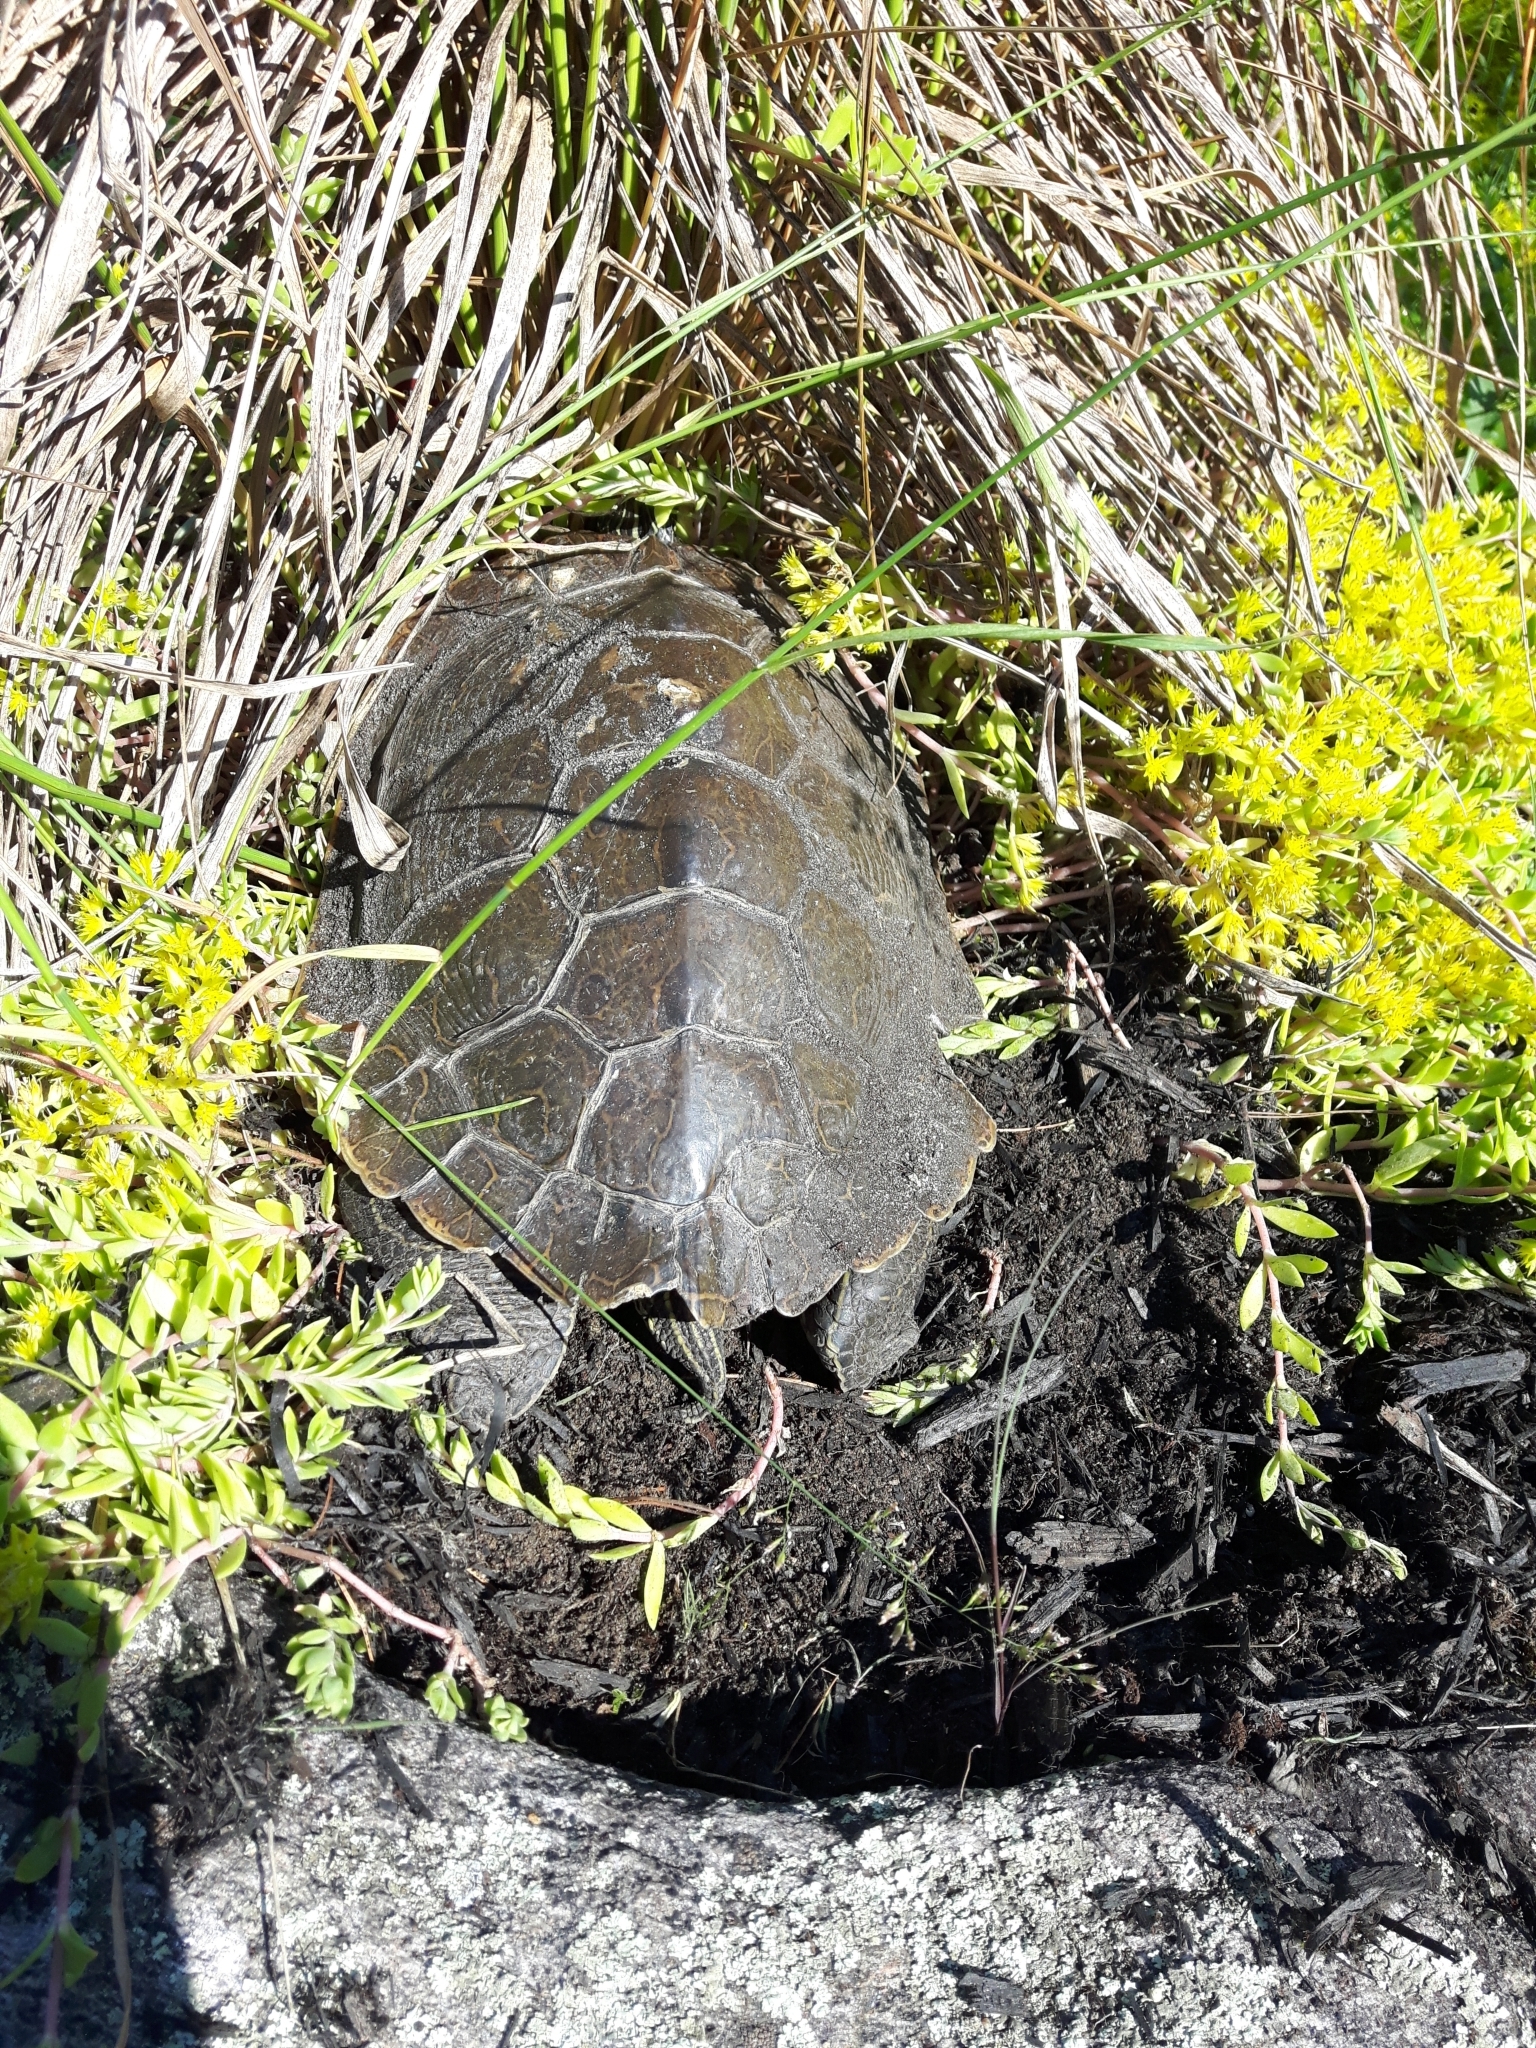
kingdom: Animalia
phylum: Chordata
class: Testudines
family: Emydidae
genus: Graptemys
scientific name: Graptemys geographica
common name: Common map turtle
